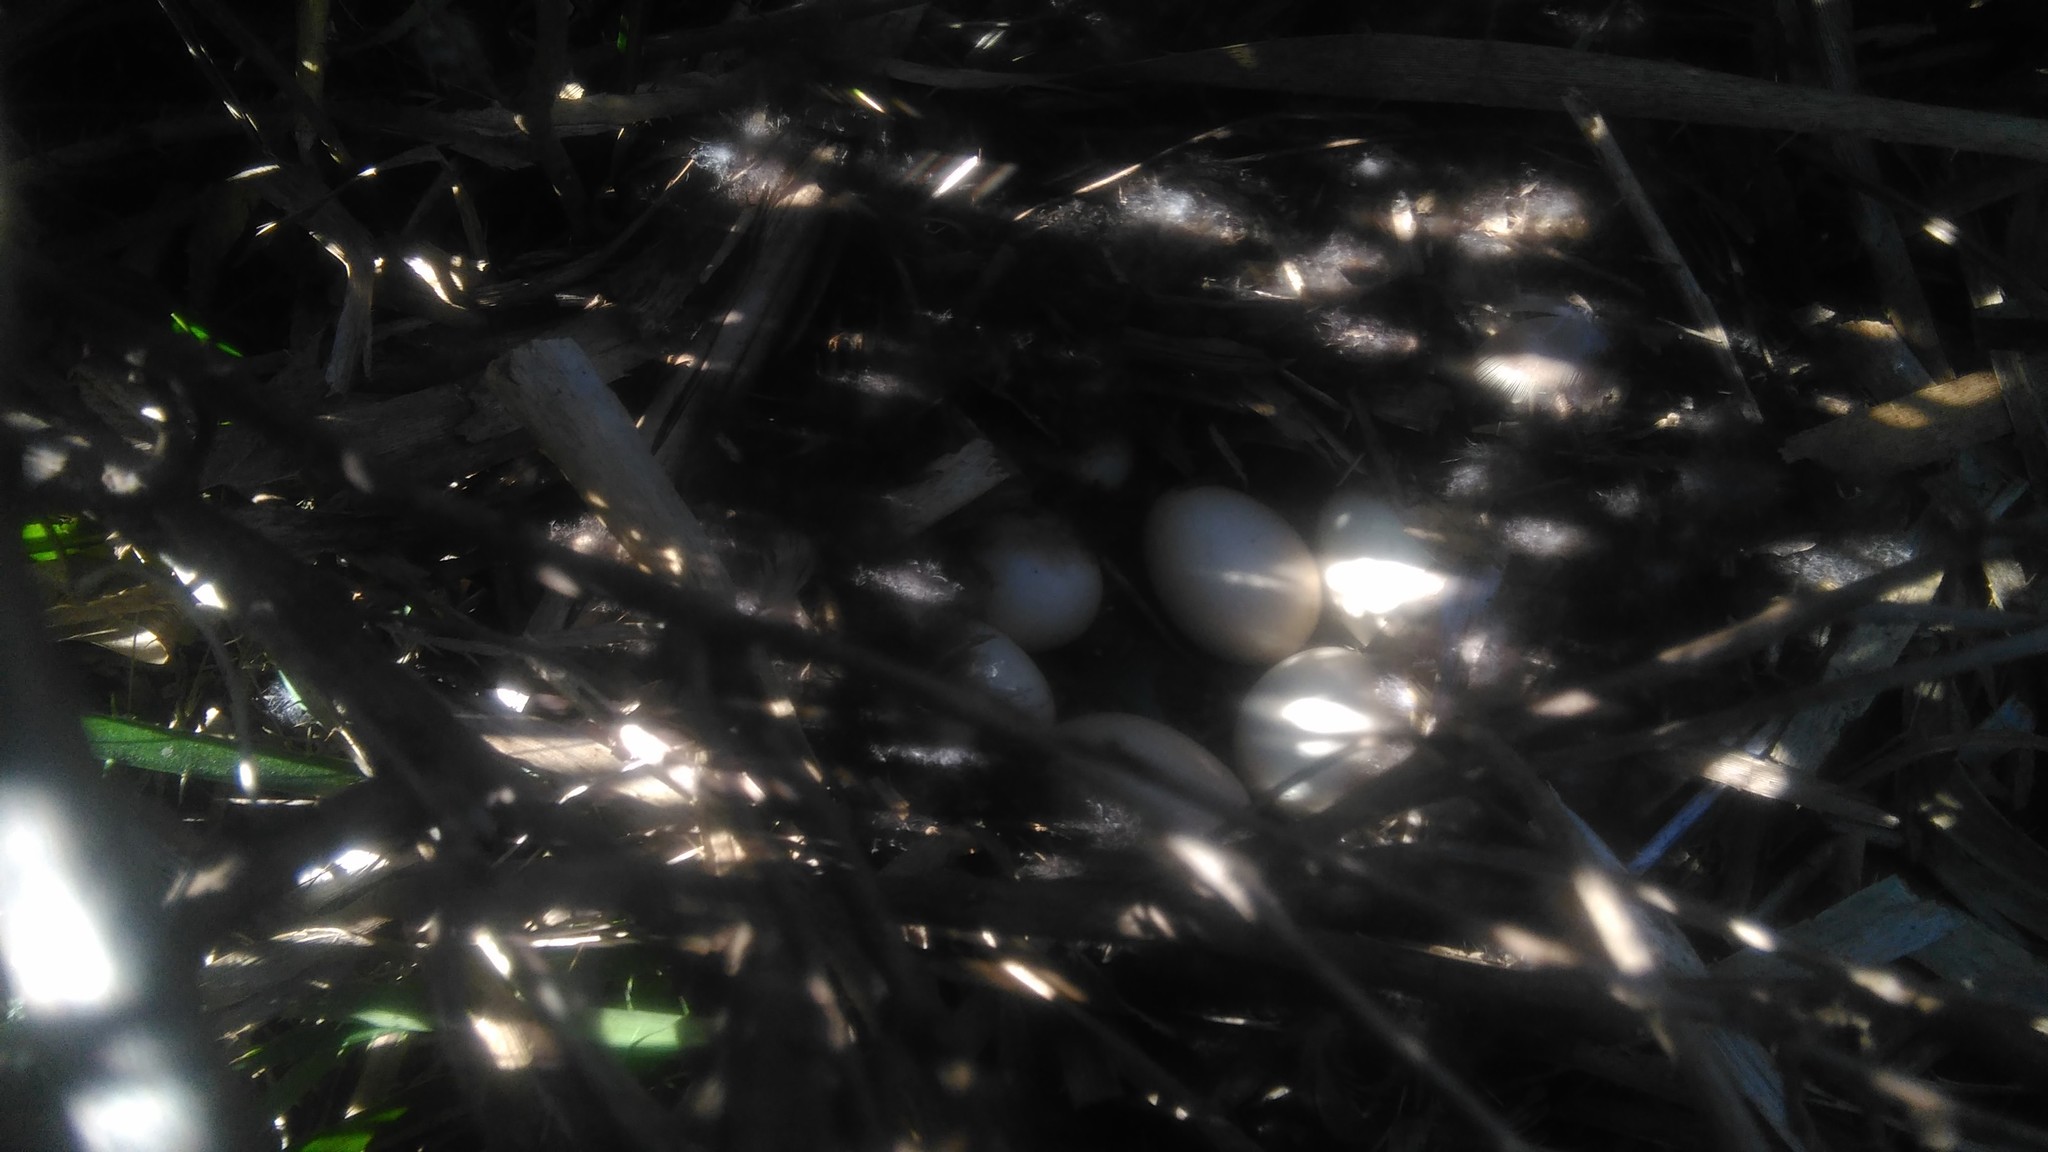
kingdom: Animalia
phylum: Chordata
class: Aves
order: Anseriformes
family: Anatidae
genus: Amazonetta
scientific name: Amazonetta brasiliensis
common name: Brazilian teal
